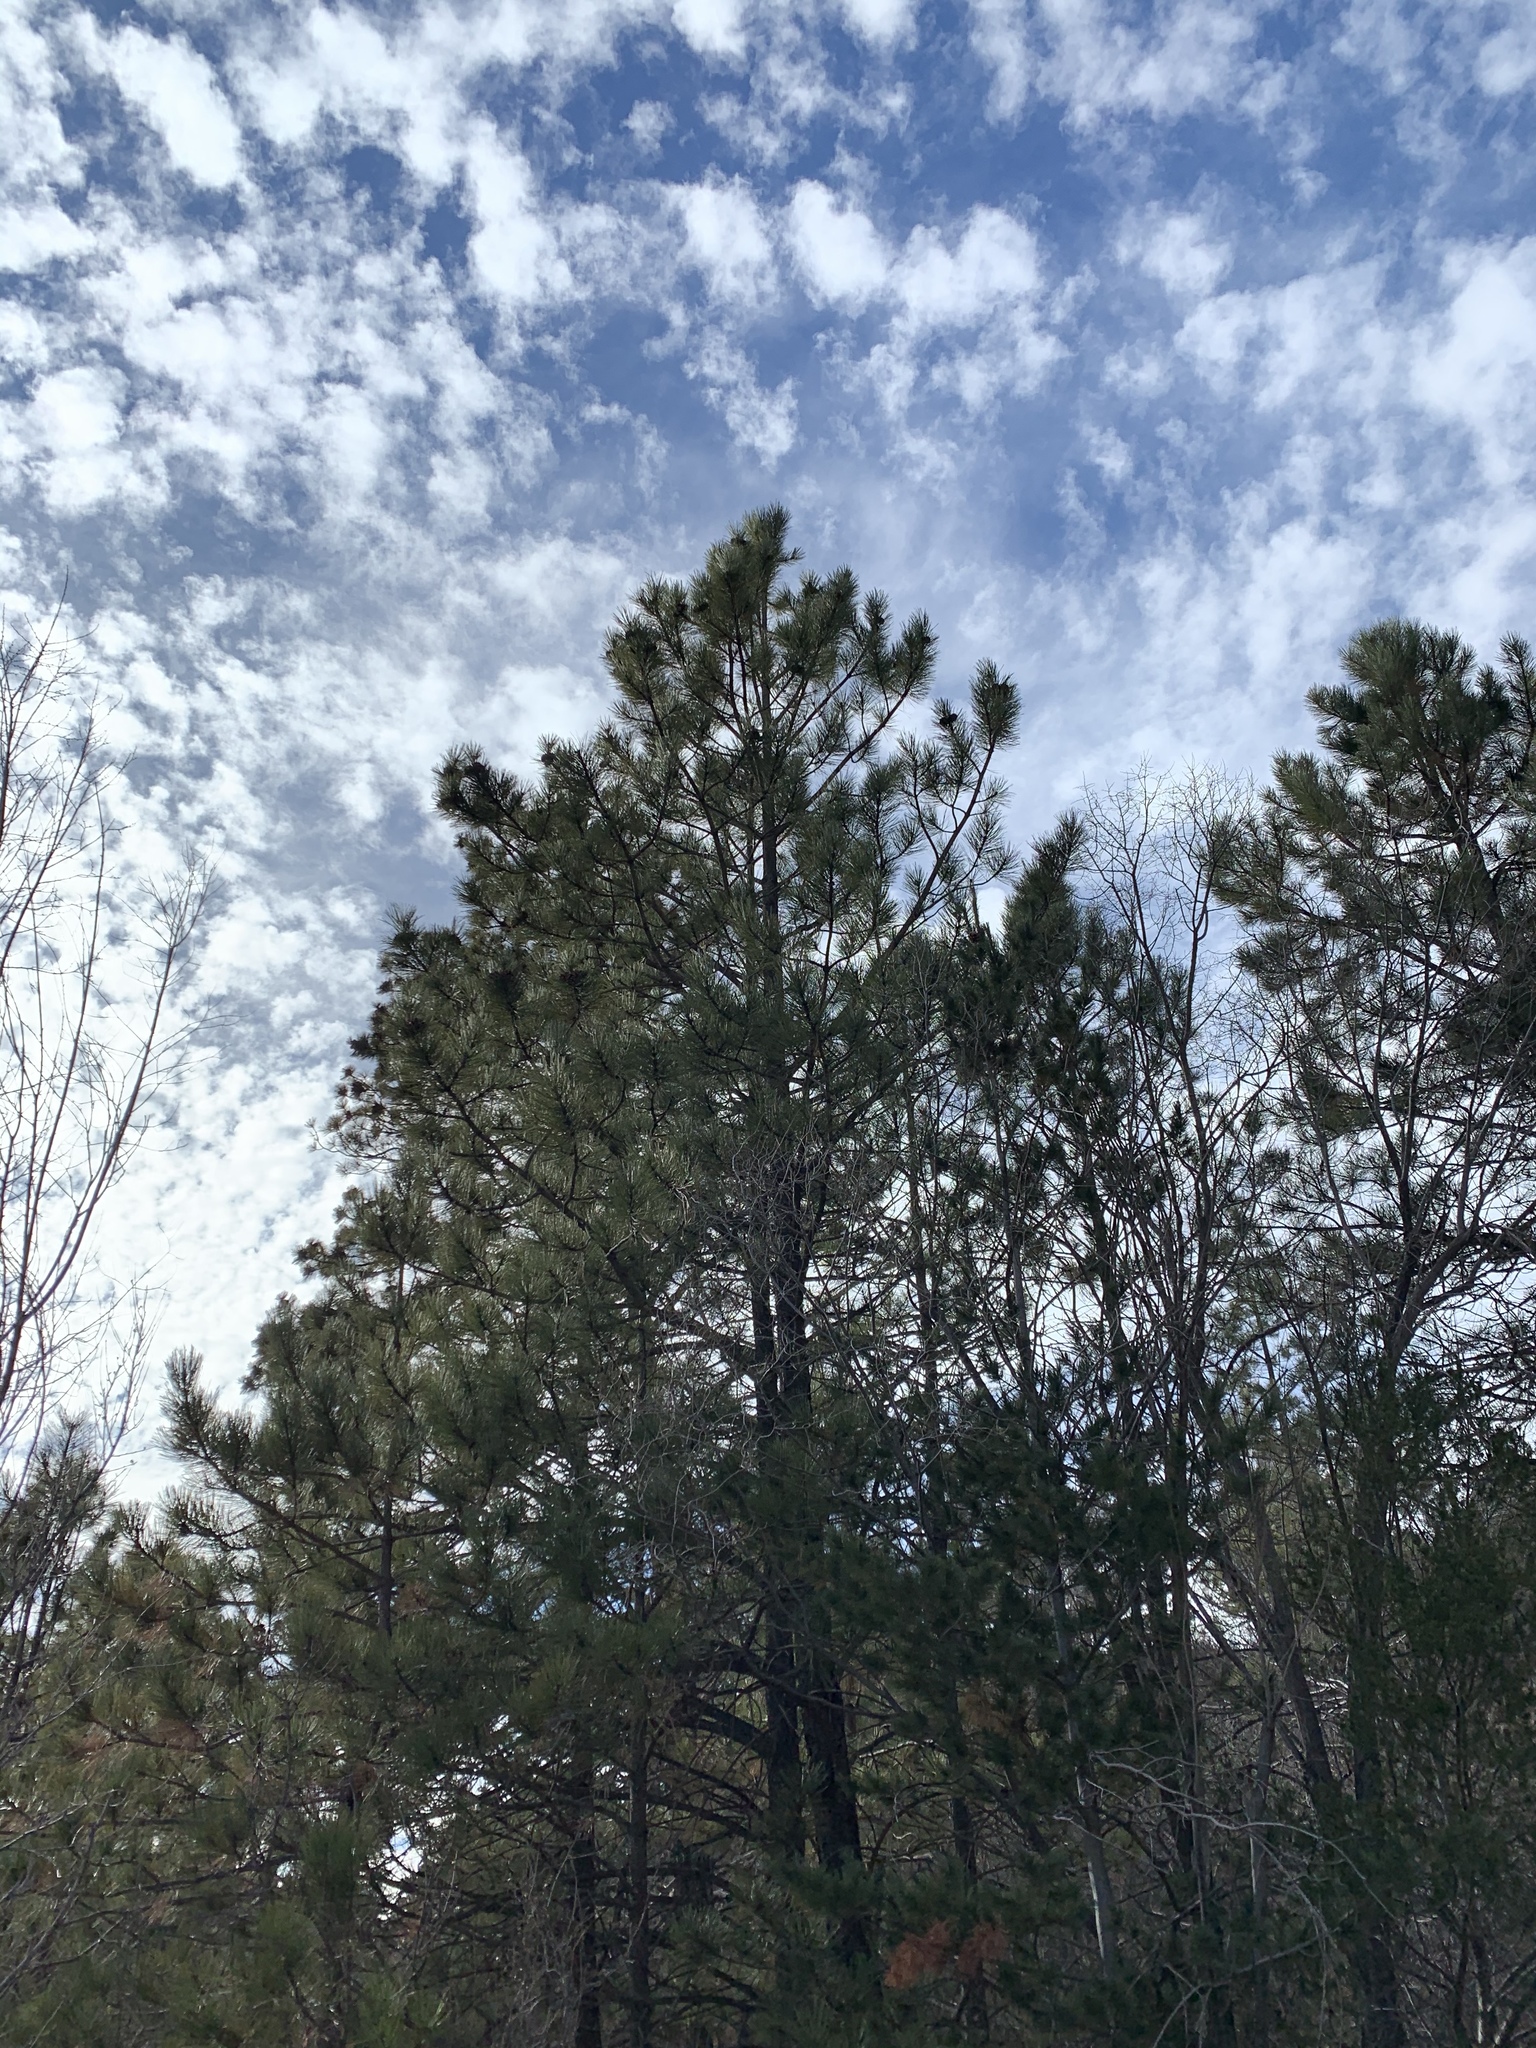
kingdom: Plantae
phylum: Tracheophyta
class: Pinopsida
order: Pinales
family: Pinaceae
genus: Pinus
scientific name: Pinus ponderosa
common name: Western yellow-pine
